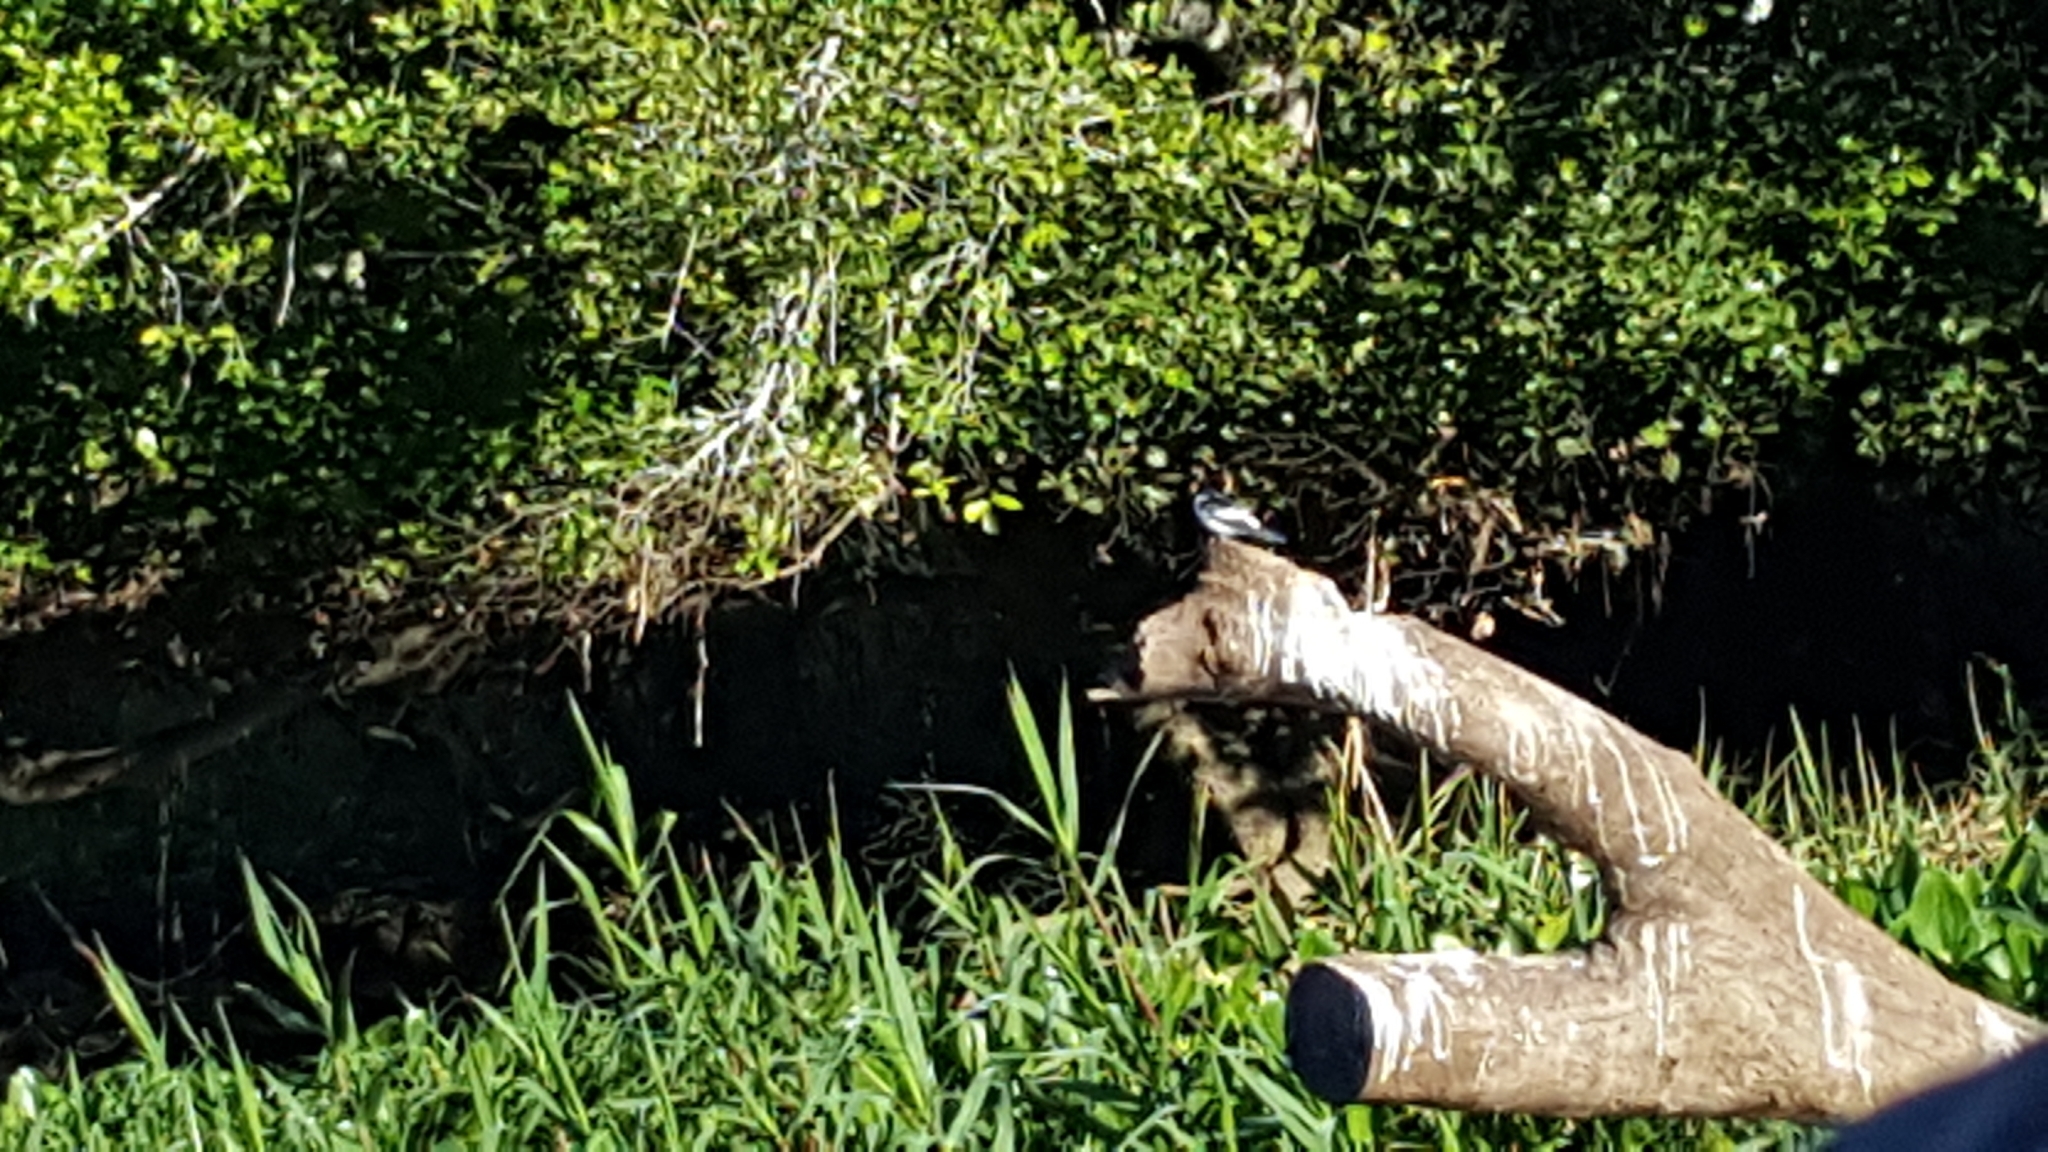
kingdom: Animalia
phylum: Chordata
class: Aves
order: Passeriformes
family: Hirundinidae
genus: Tachycineta
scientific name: Tachycineta albiventer
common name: White-winged swallow
